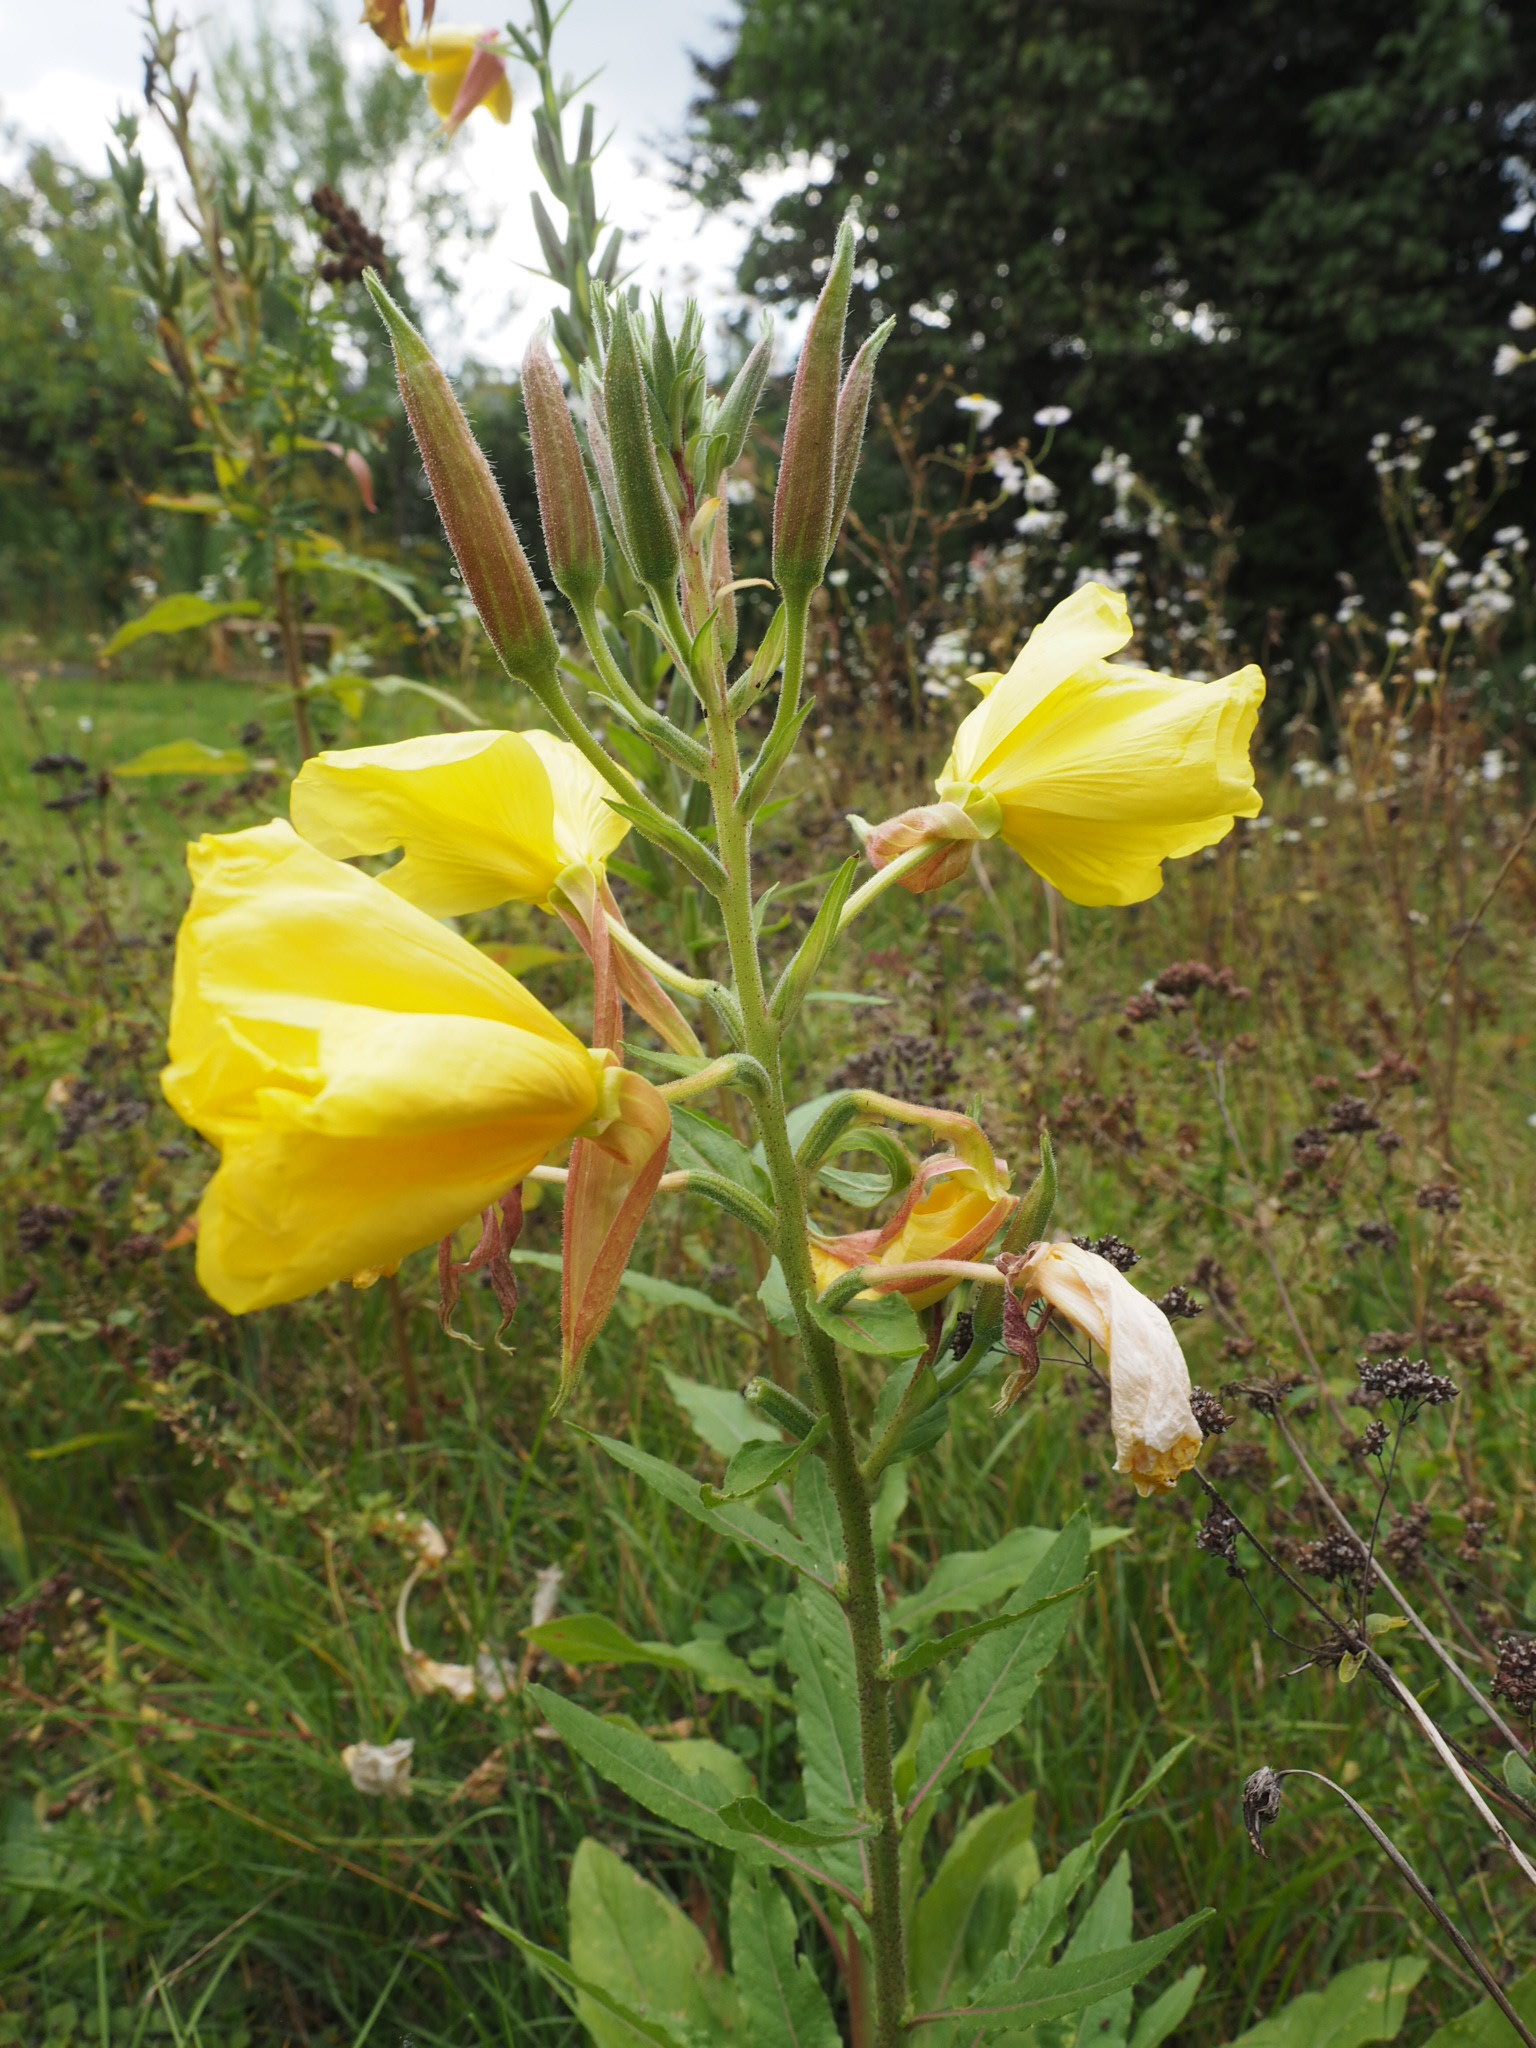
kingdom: Plantae
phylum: Tracheophyta
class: Magnoliopsida
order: Myrtales
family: Onagraceae
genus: Oenothera
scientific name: Oenothera glazioviana
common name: Large-flowered evening-primrose
